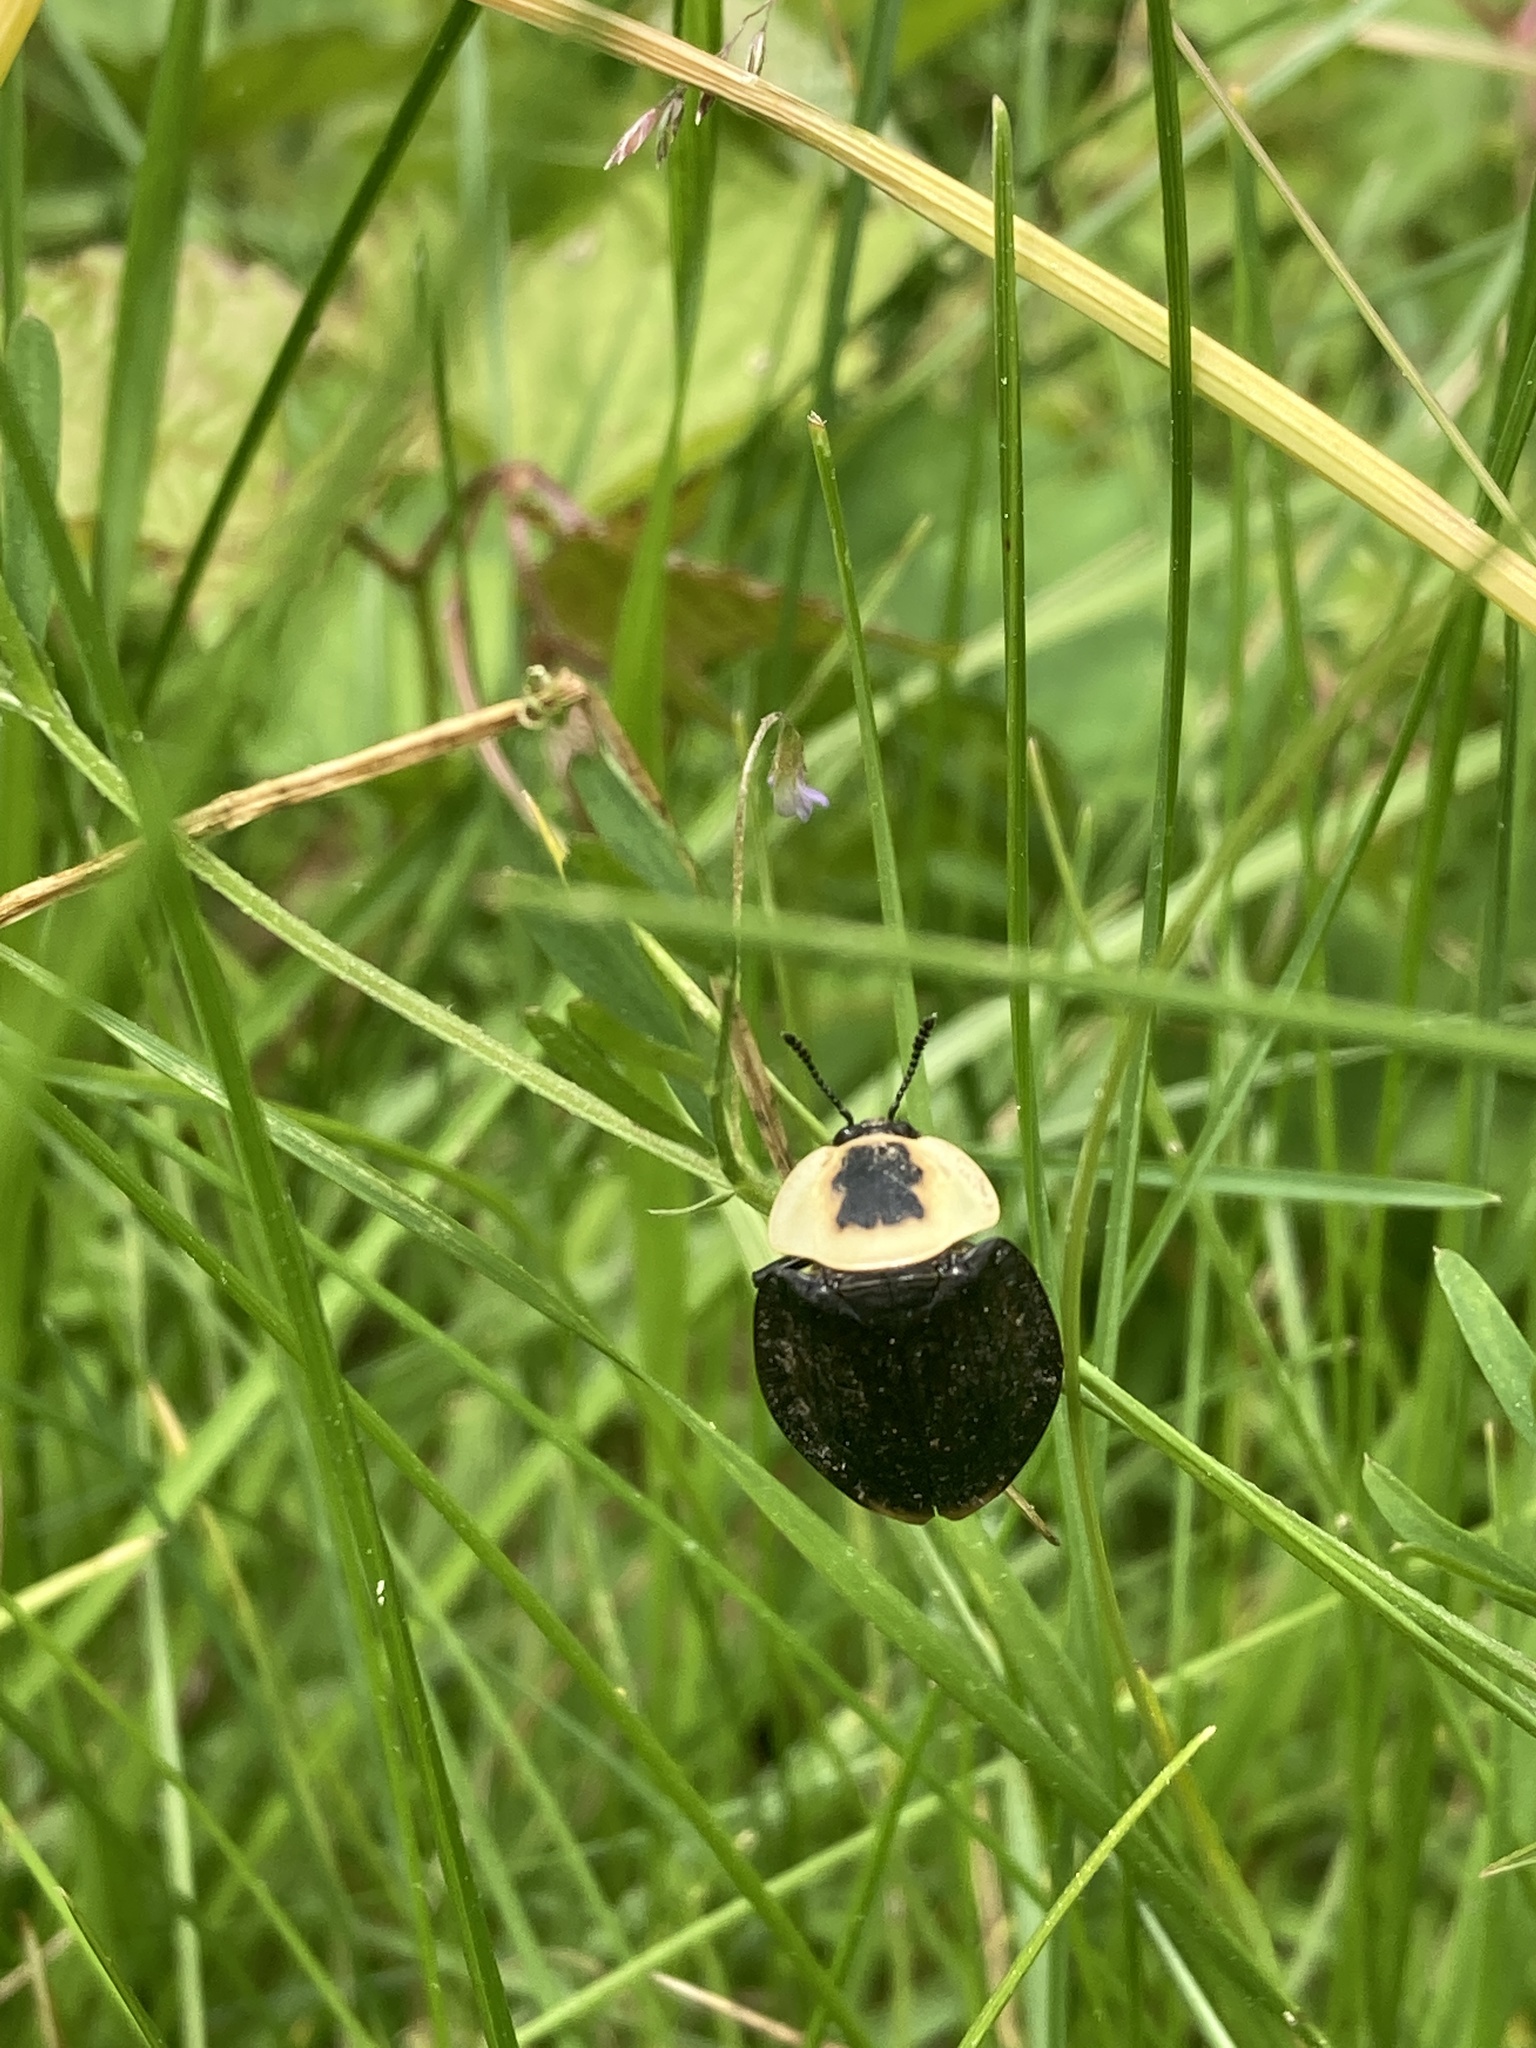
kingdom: Animalia
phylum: Arthropoda
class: Insecta
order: Coleoptera
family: Staphylinidae
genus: Necrophila
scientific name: Necrophila americana
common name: American carrion beetle
